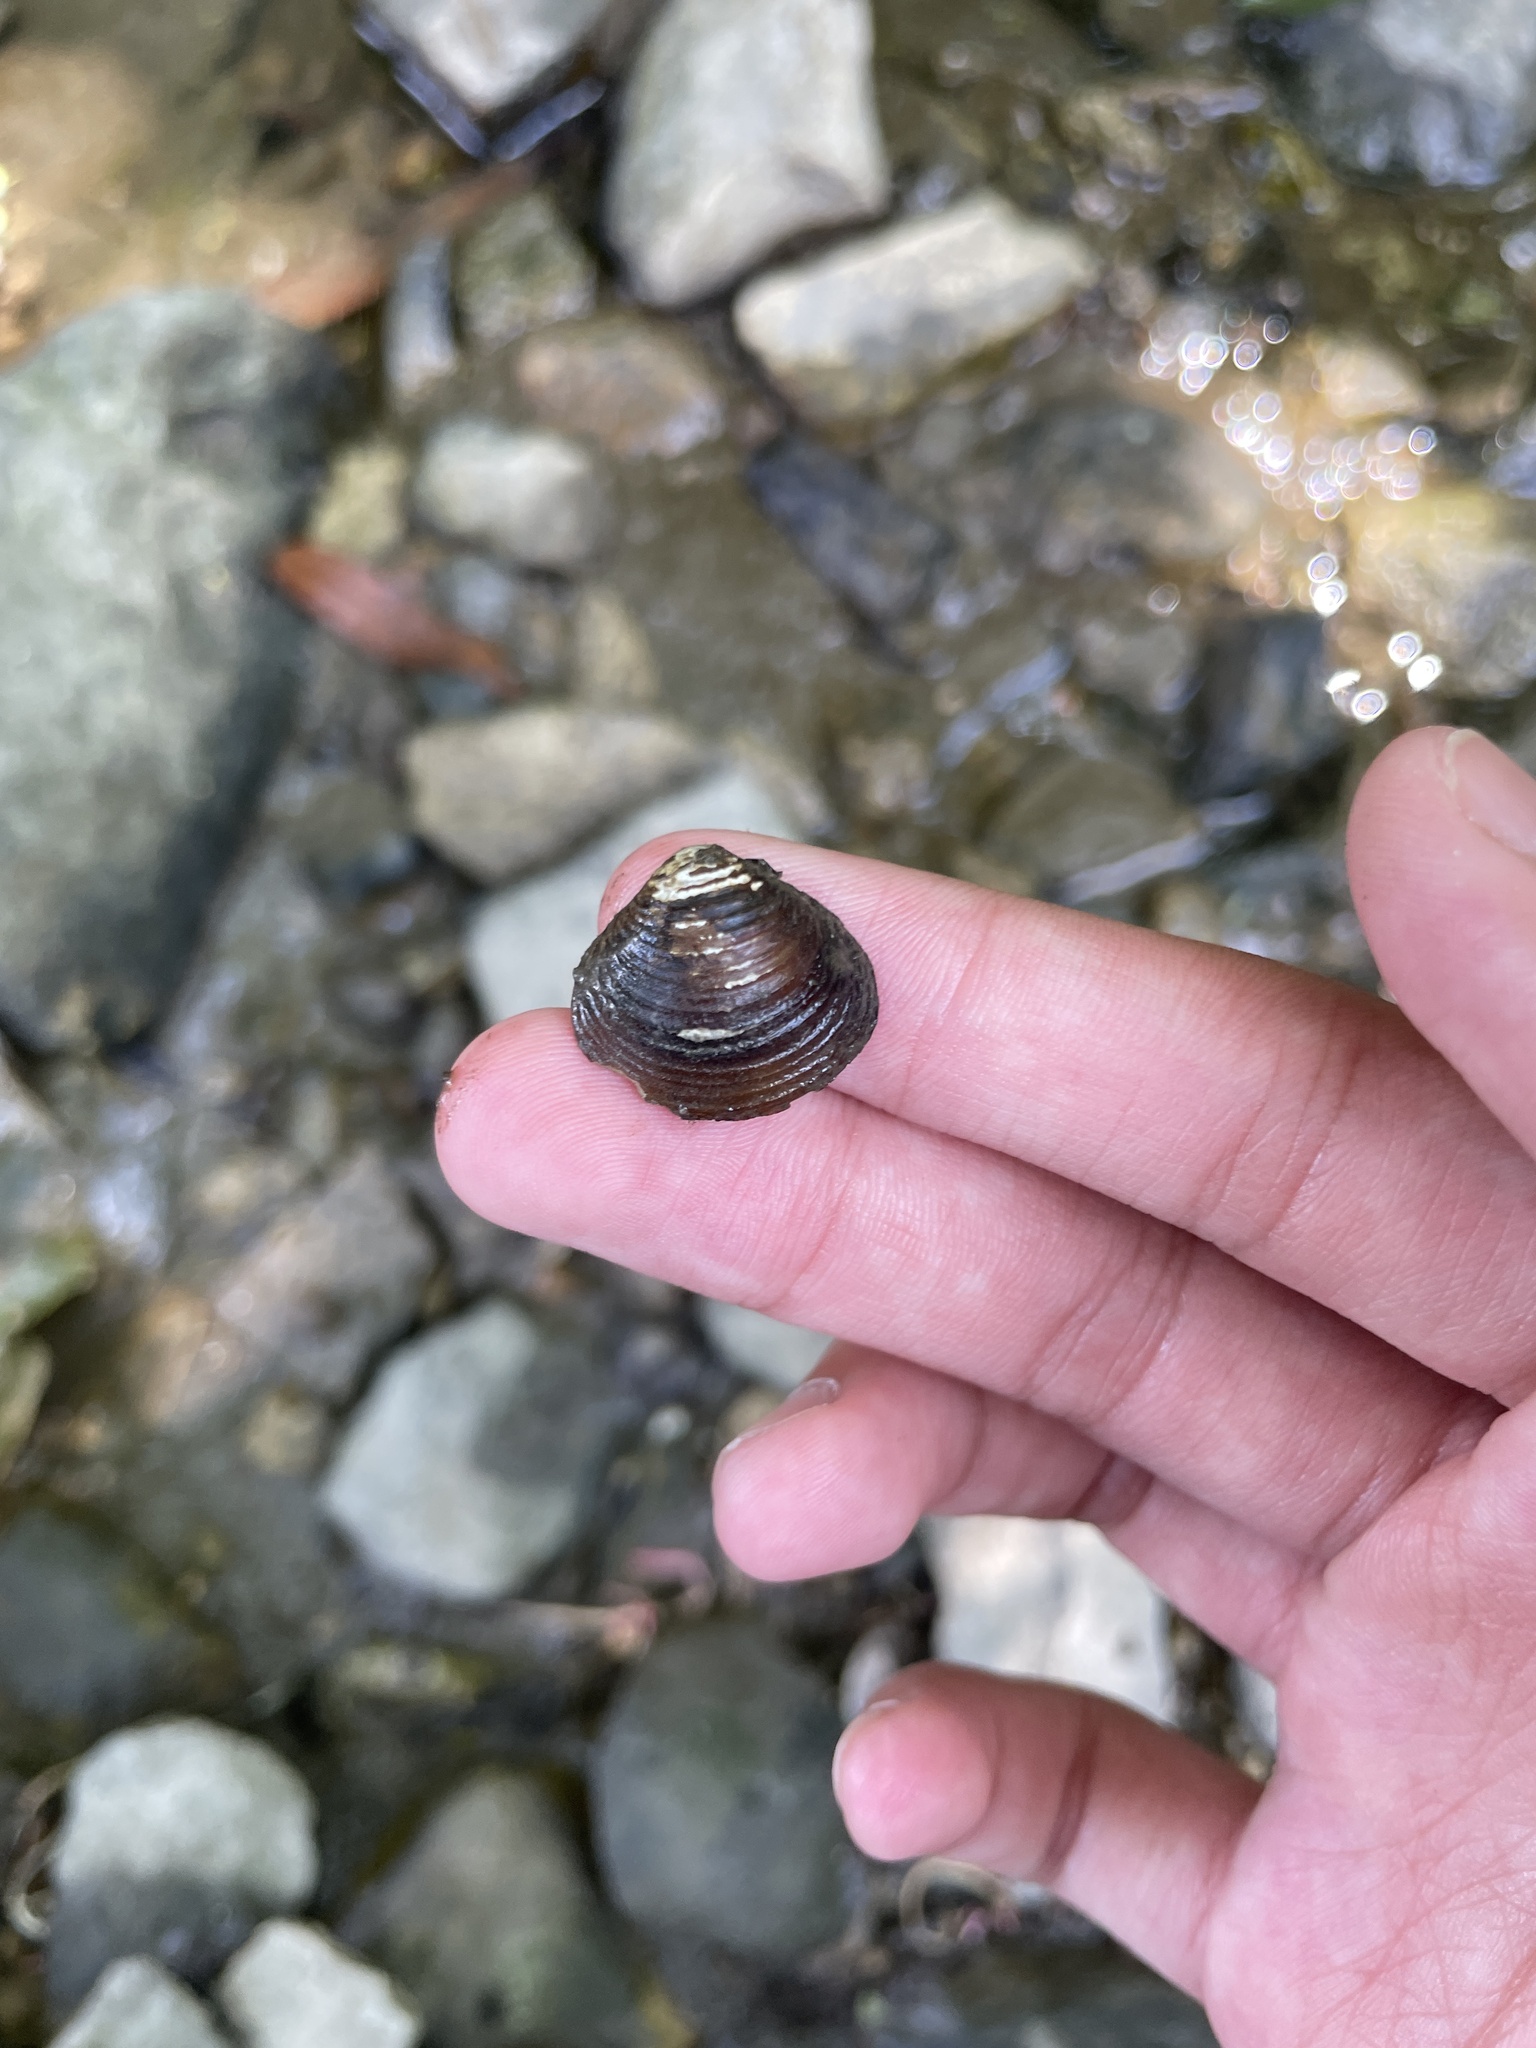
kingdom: Animalia
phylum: Mollusca
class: Bivalvia
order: Venerida
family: Cyrenidae
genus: Corbicula
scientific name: Corbicula fluminea
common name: Asian clam
